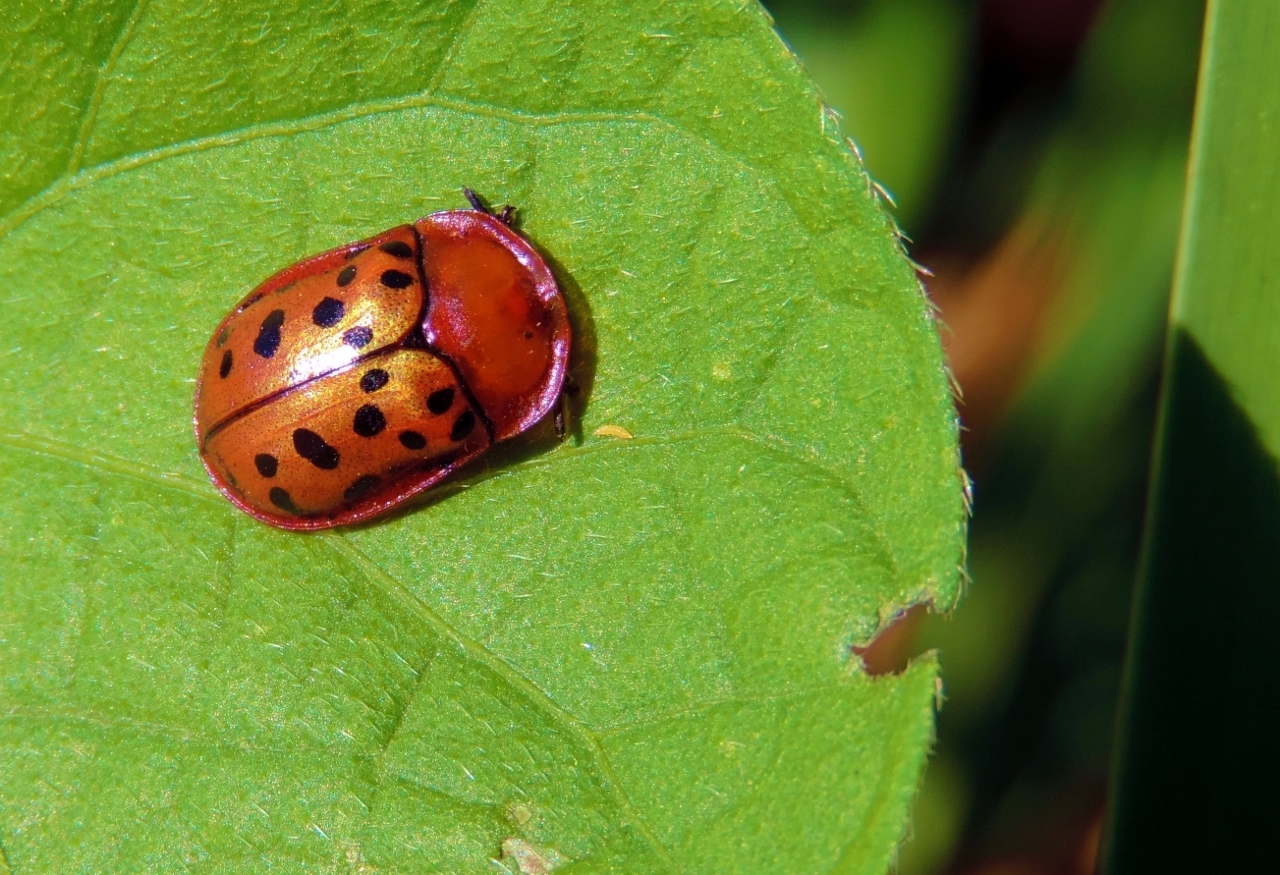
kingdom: Animalia
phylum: Arthropoda
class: Insecta
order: Coleoptera
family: Chrysomelidae
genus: Conchyloctenia
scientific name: Conchyloctenia punctata
